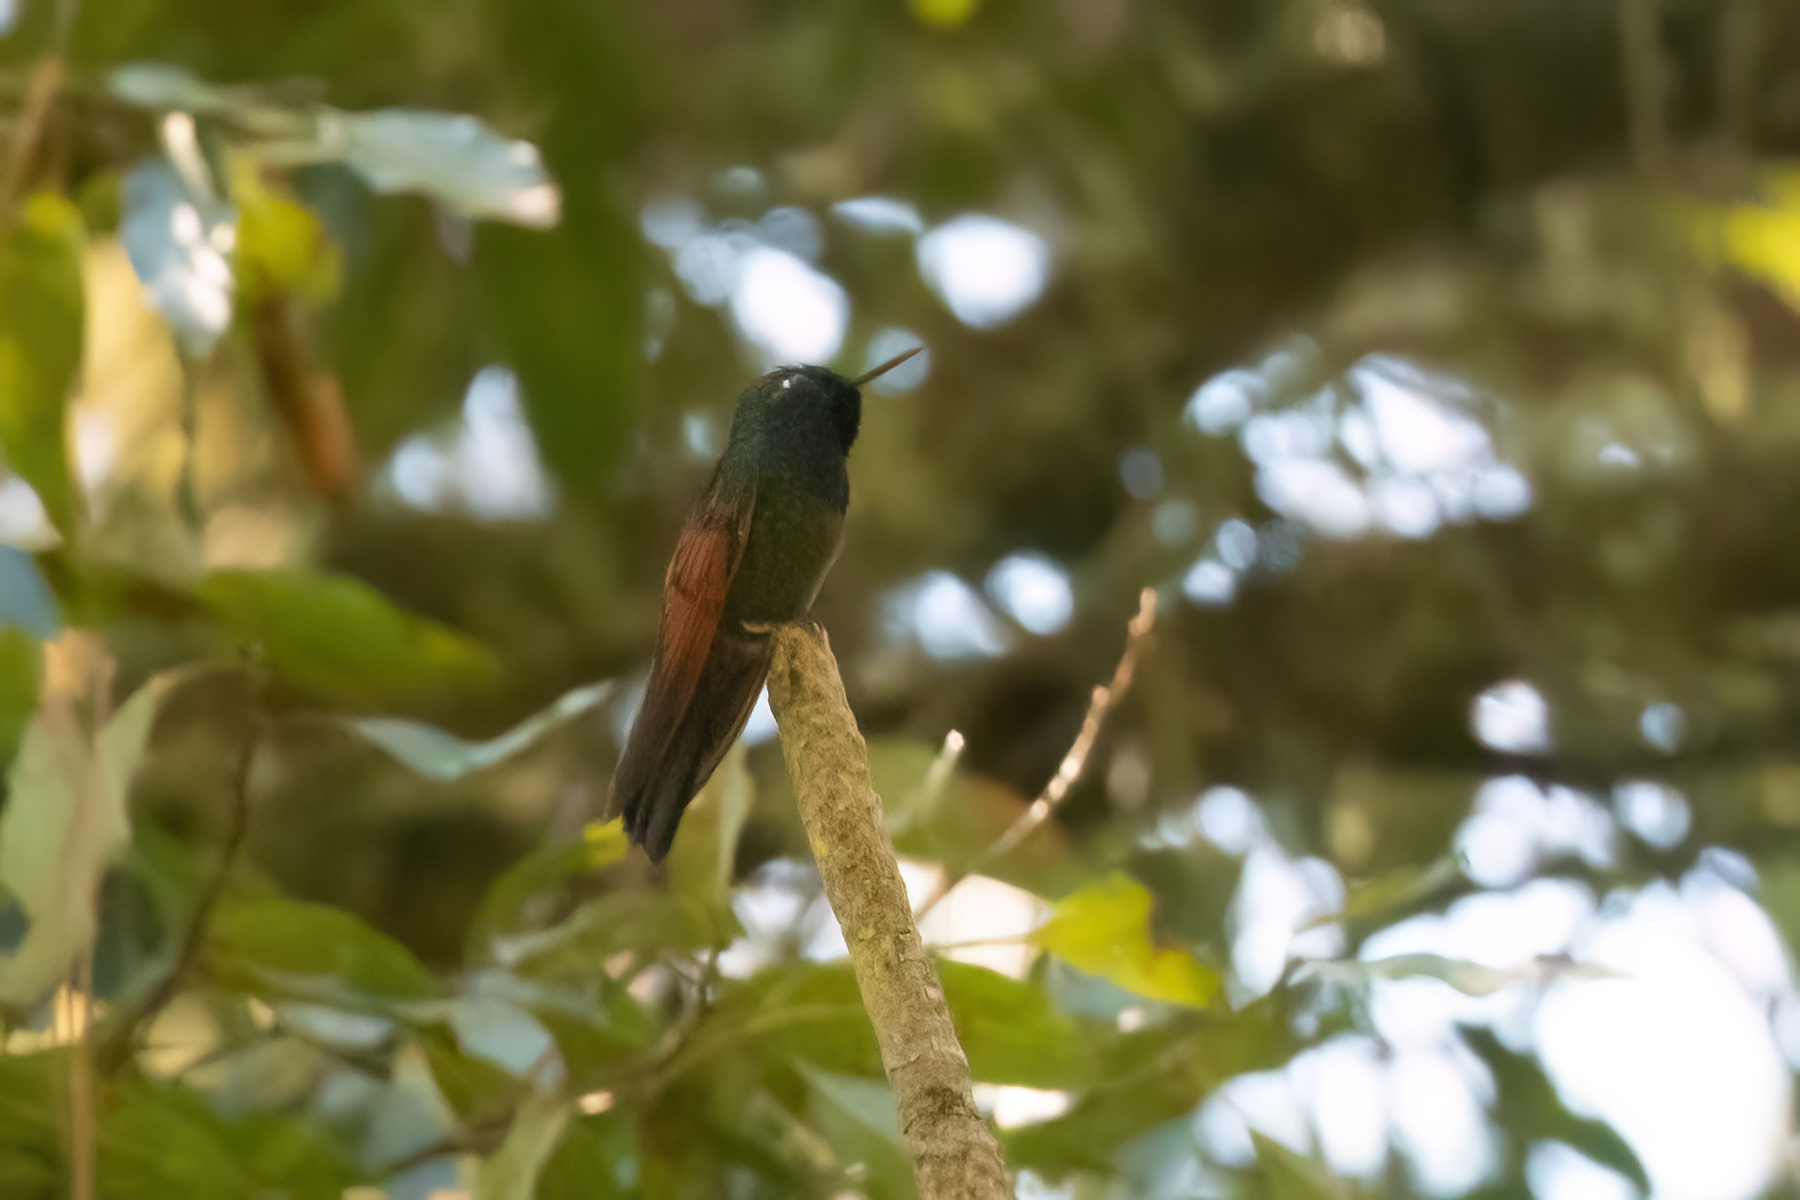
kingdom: Animalia
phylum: Chordata
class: Aves
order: Apodiformes
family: Trochilidae
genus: Lamprolaima
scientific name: Lamprolaima rhami
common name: Garnet-throated hummingbird
